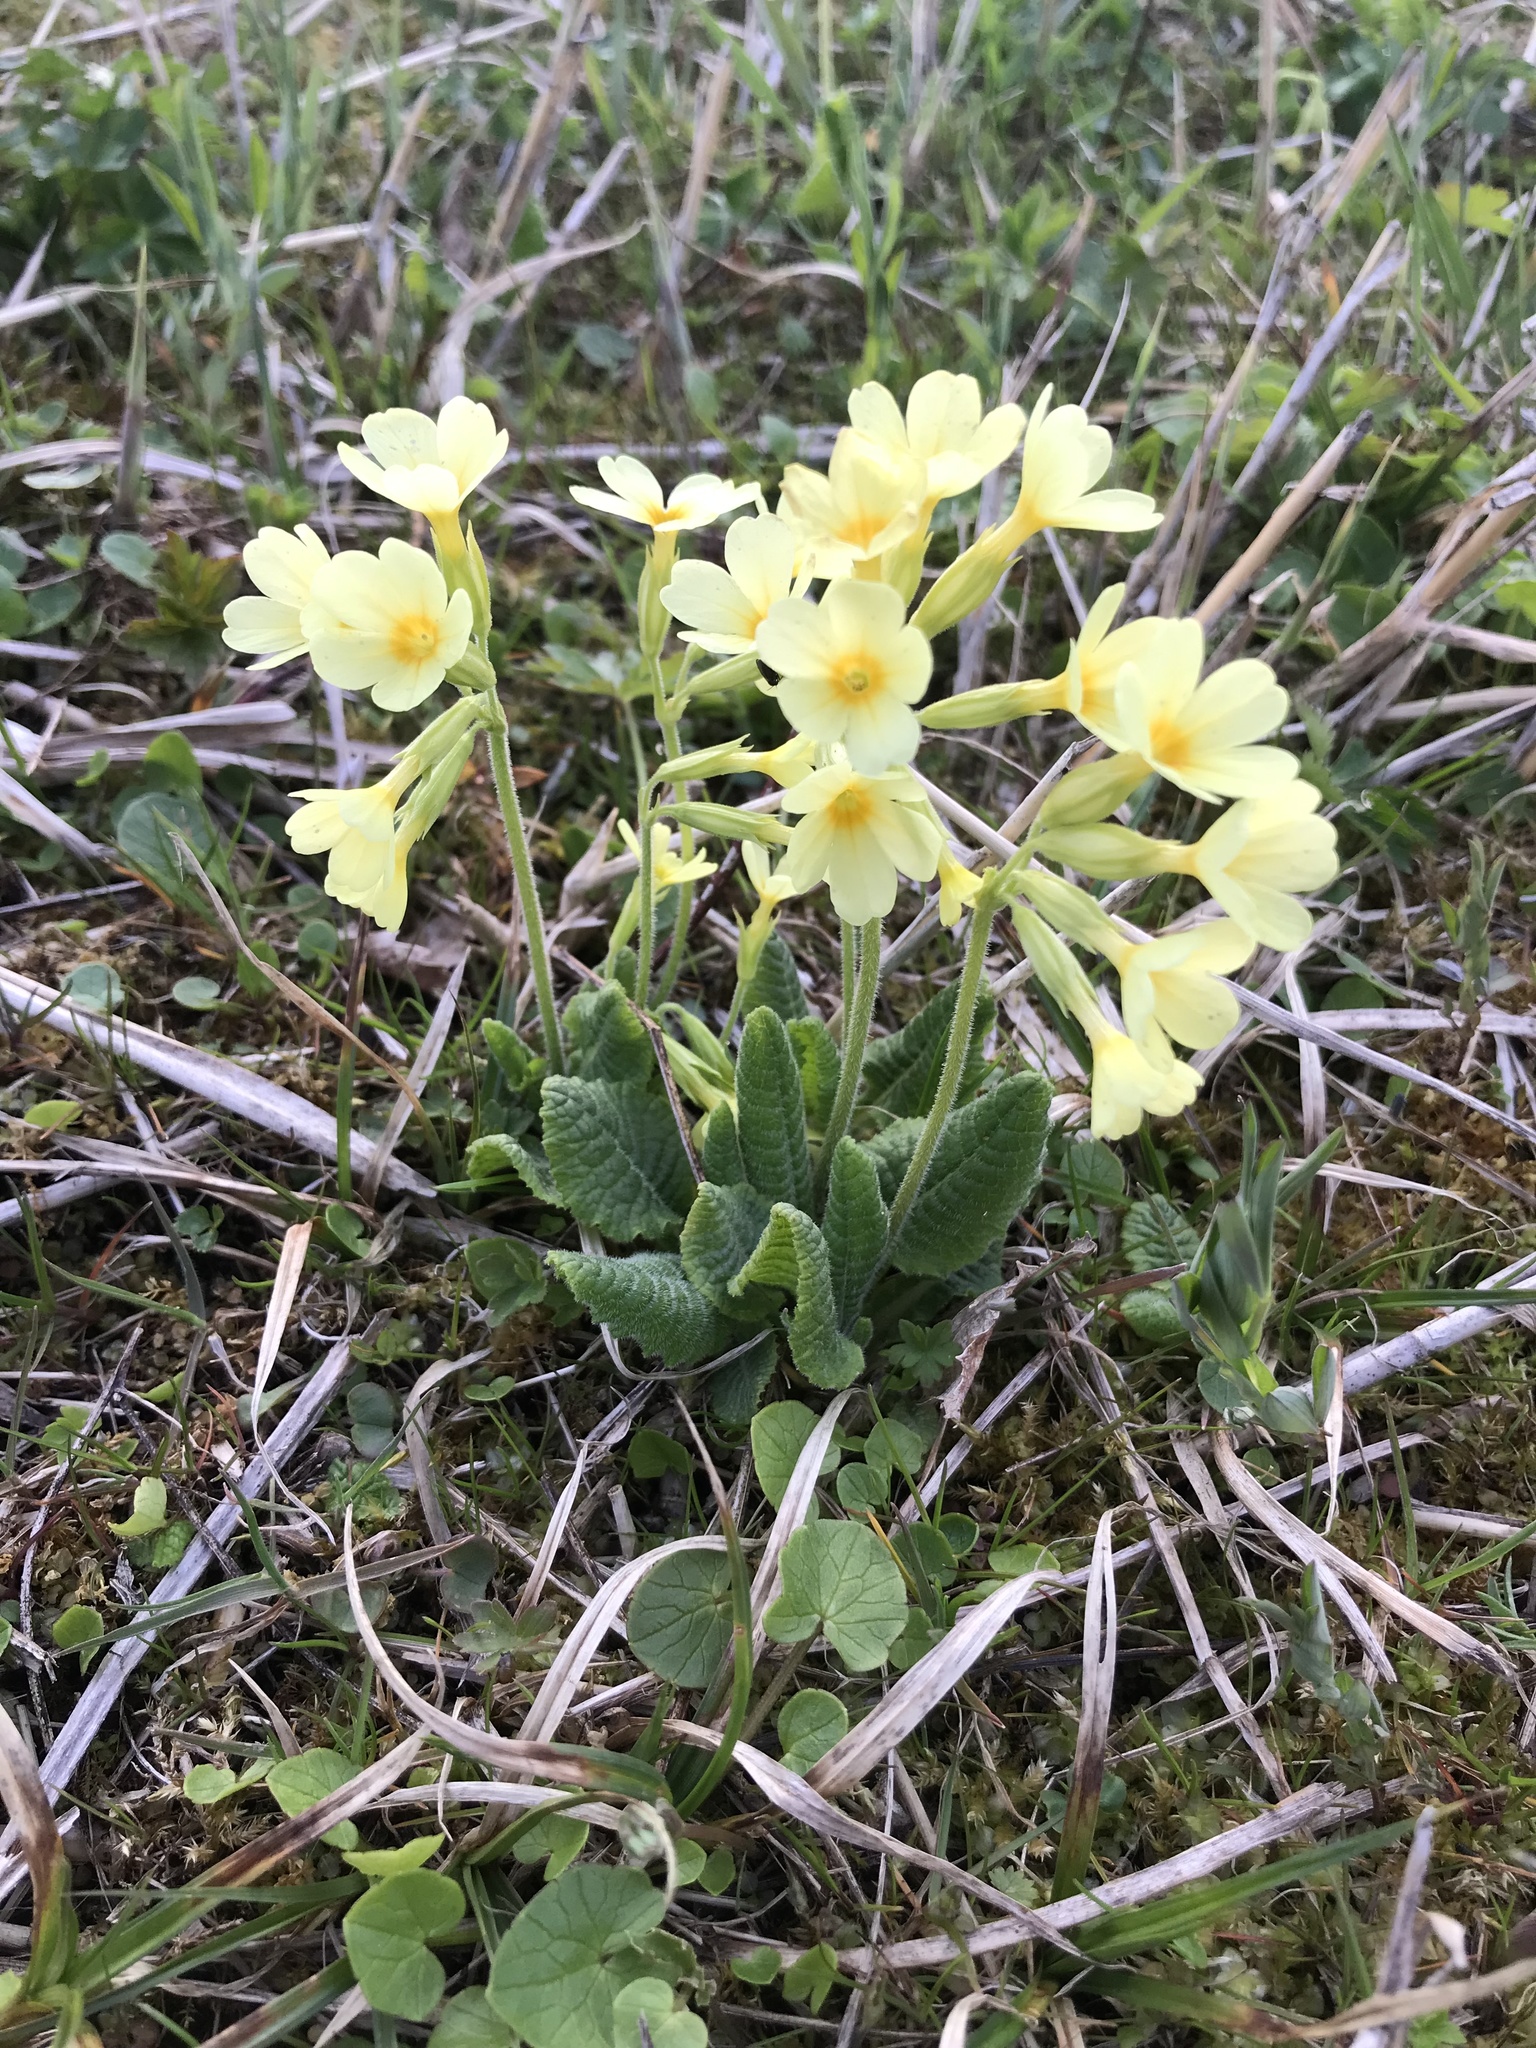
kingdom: Plantae
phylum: Tracheophyta
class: Magnoliopsida
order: Ericales
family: Primulaceae
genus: Primula
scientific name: Primula elatior
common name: Oxlip
